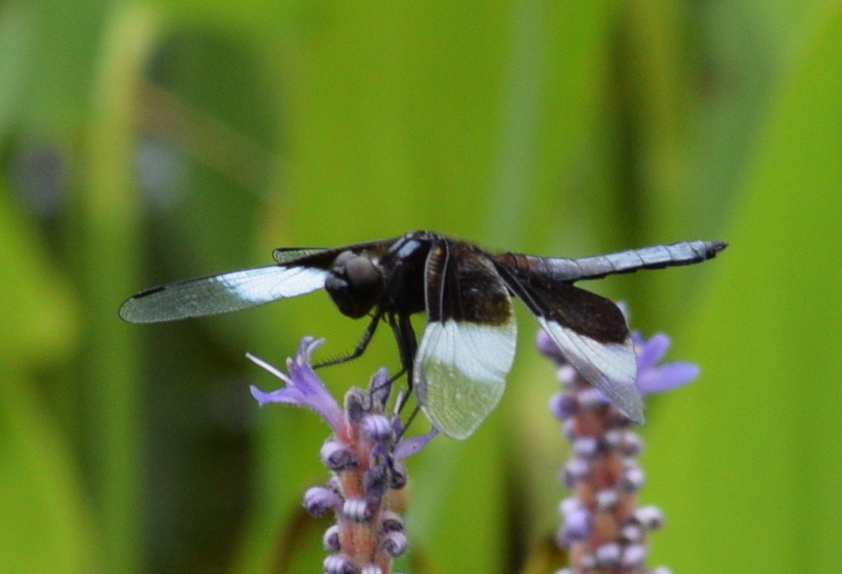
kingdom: Animalia
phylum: Arthropoda
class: Insecta
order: Odonata
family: Libellulidae
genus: Libellula
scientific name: Libellula luctuosa
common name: Widow skimmer
